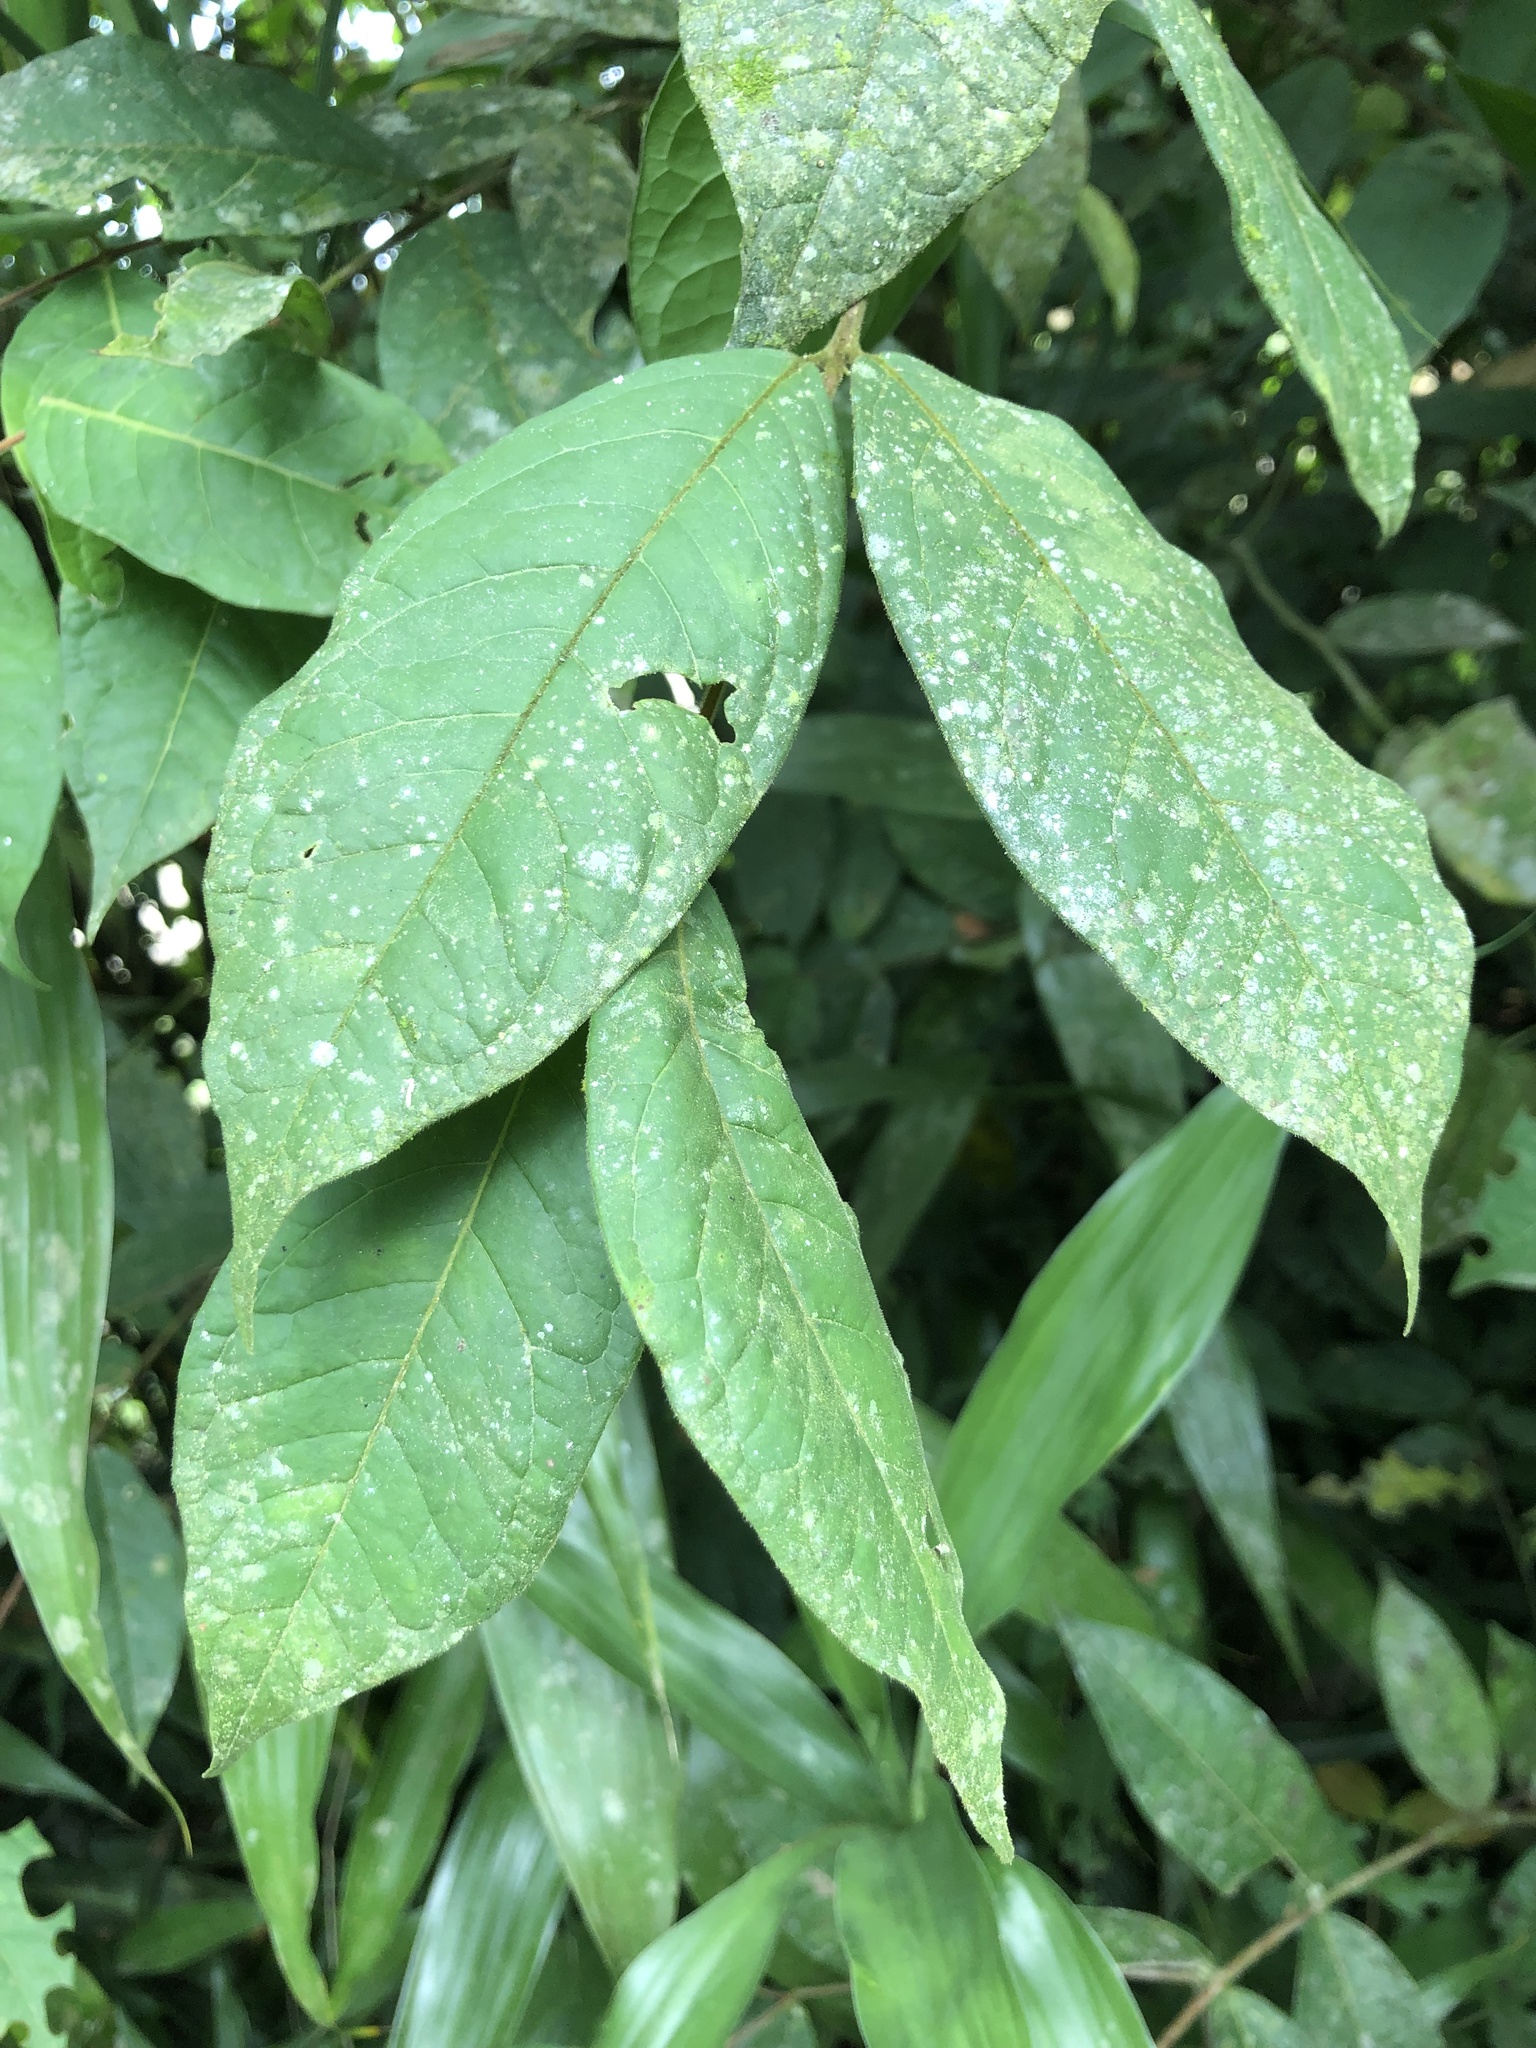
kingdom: Plantae
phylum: Tracheophyta
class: Magnoliopsida
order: Myrtales
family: Myrtaceae
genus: Eugenia
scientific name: Eugenia stipitata
